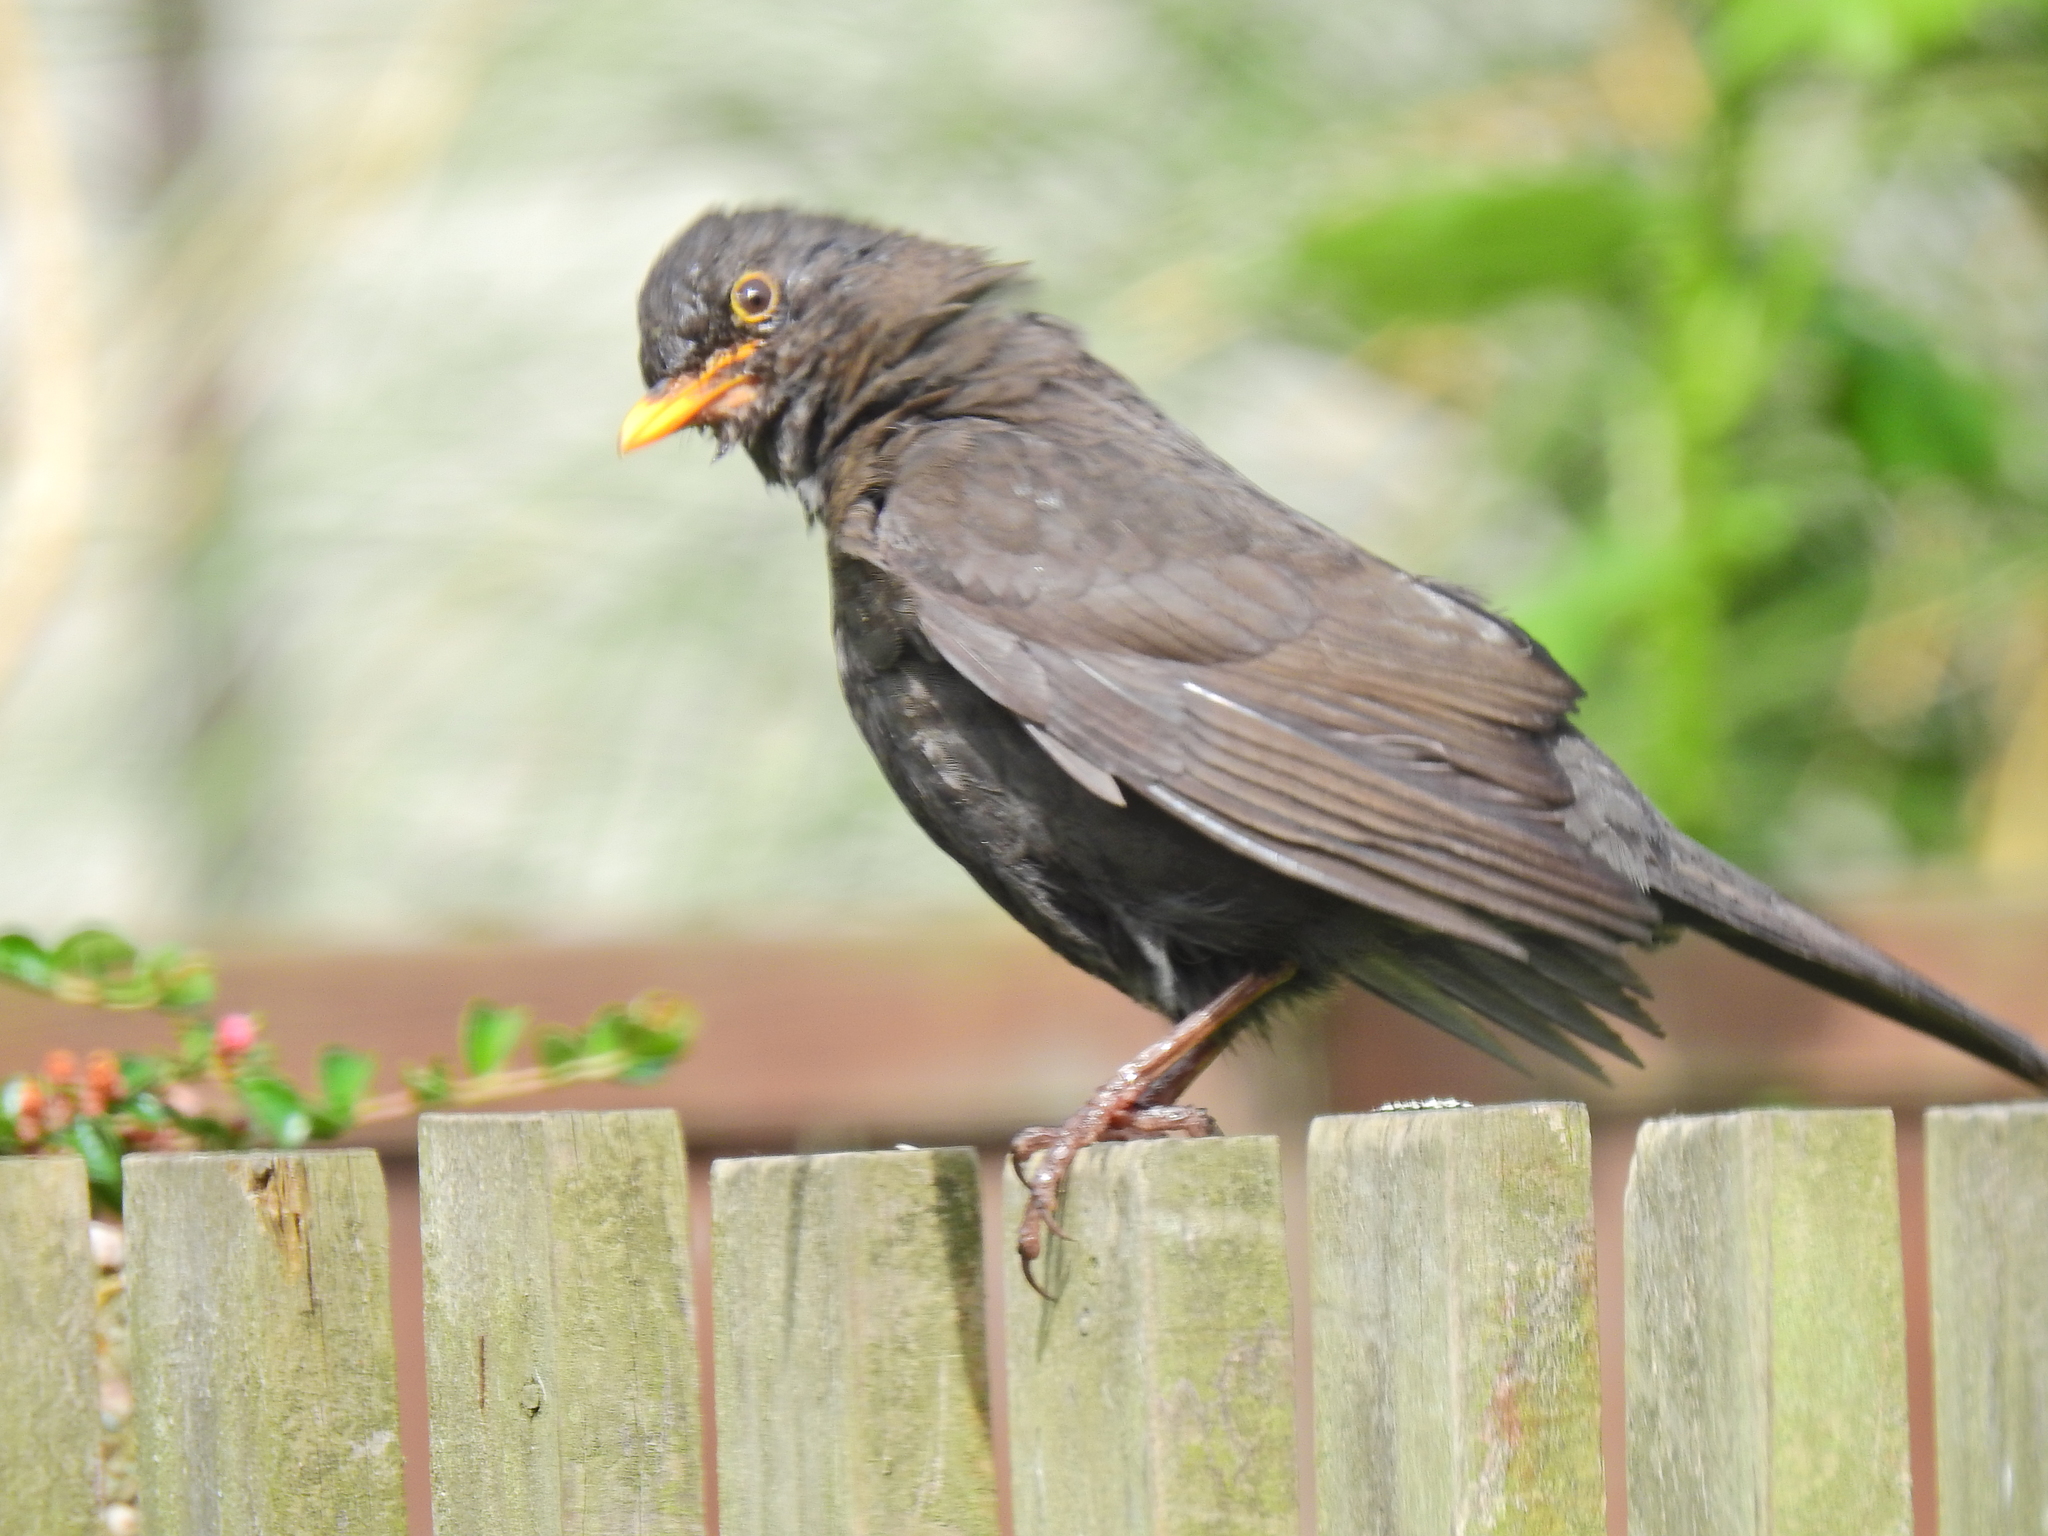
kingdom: Animalia
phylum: Chordata
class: Aves
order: Passeriformes
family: Turdidae
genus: Turdus
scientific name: Turdus merula
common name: Common blackbird
